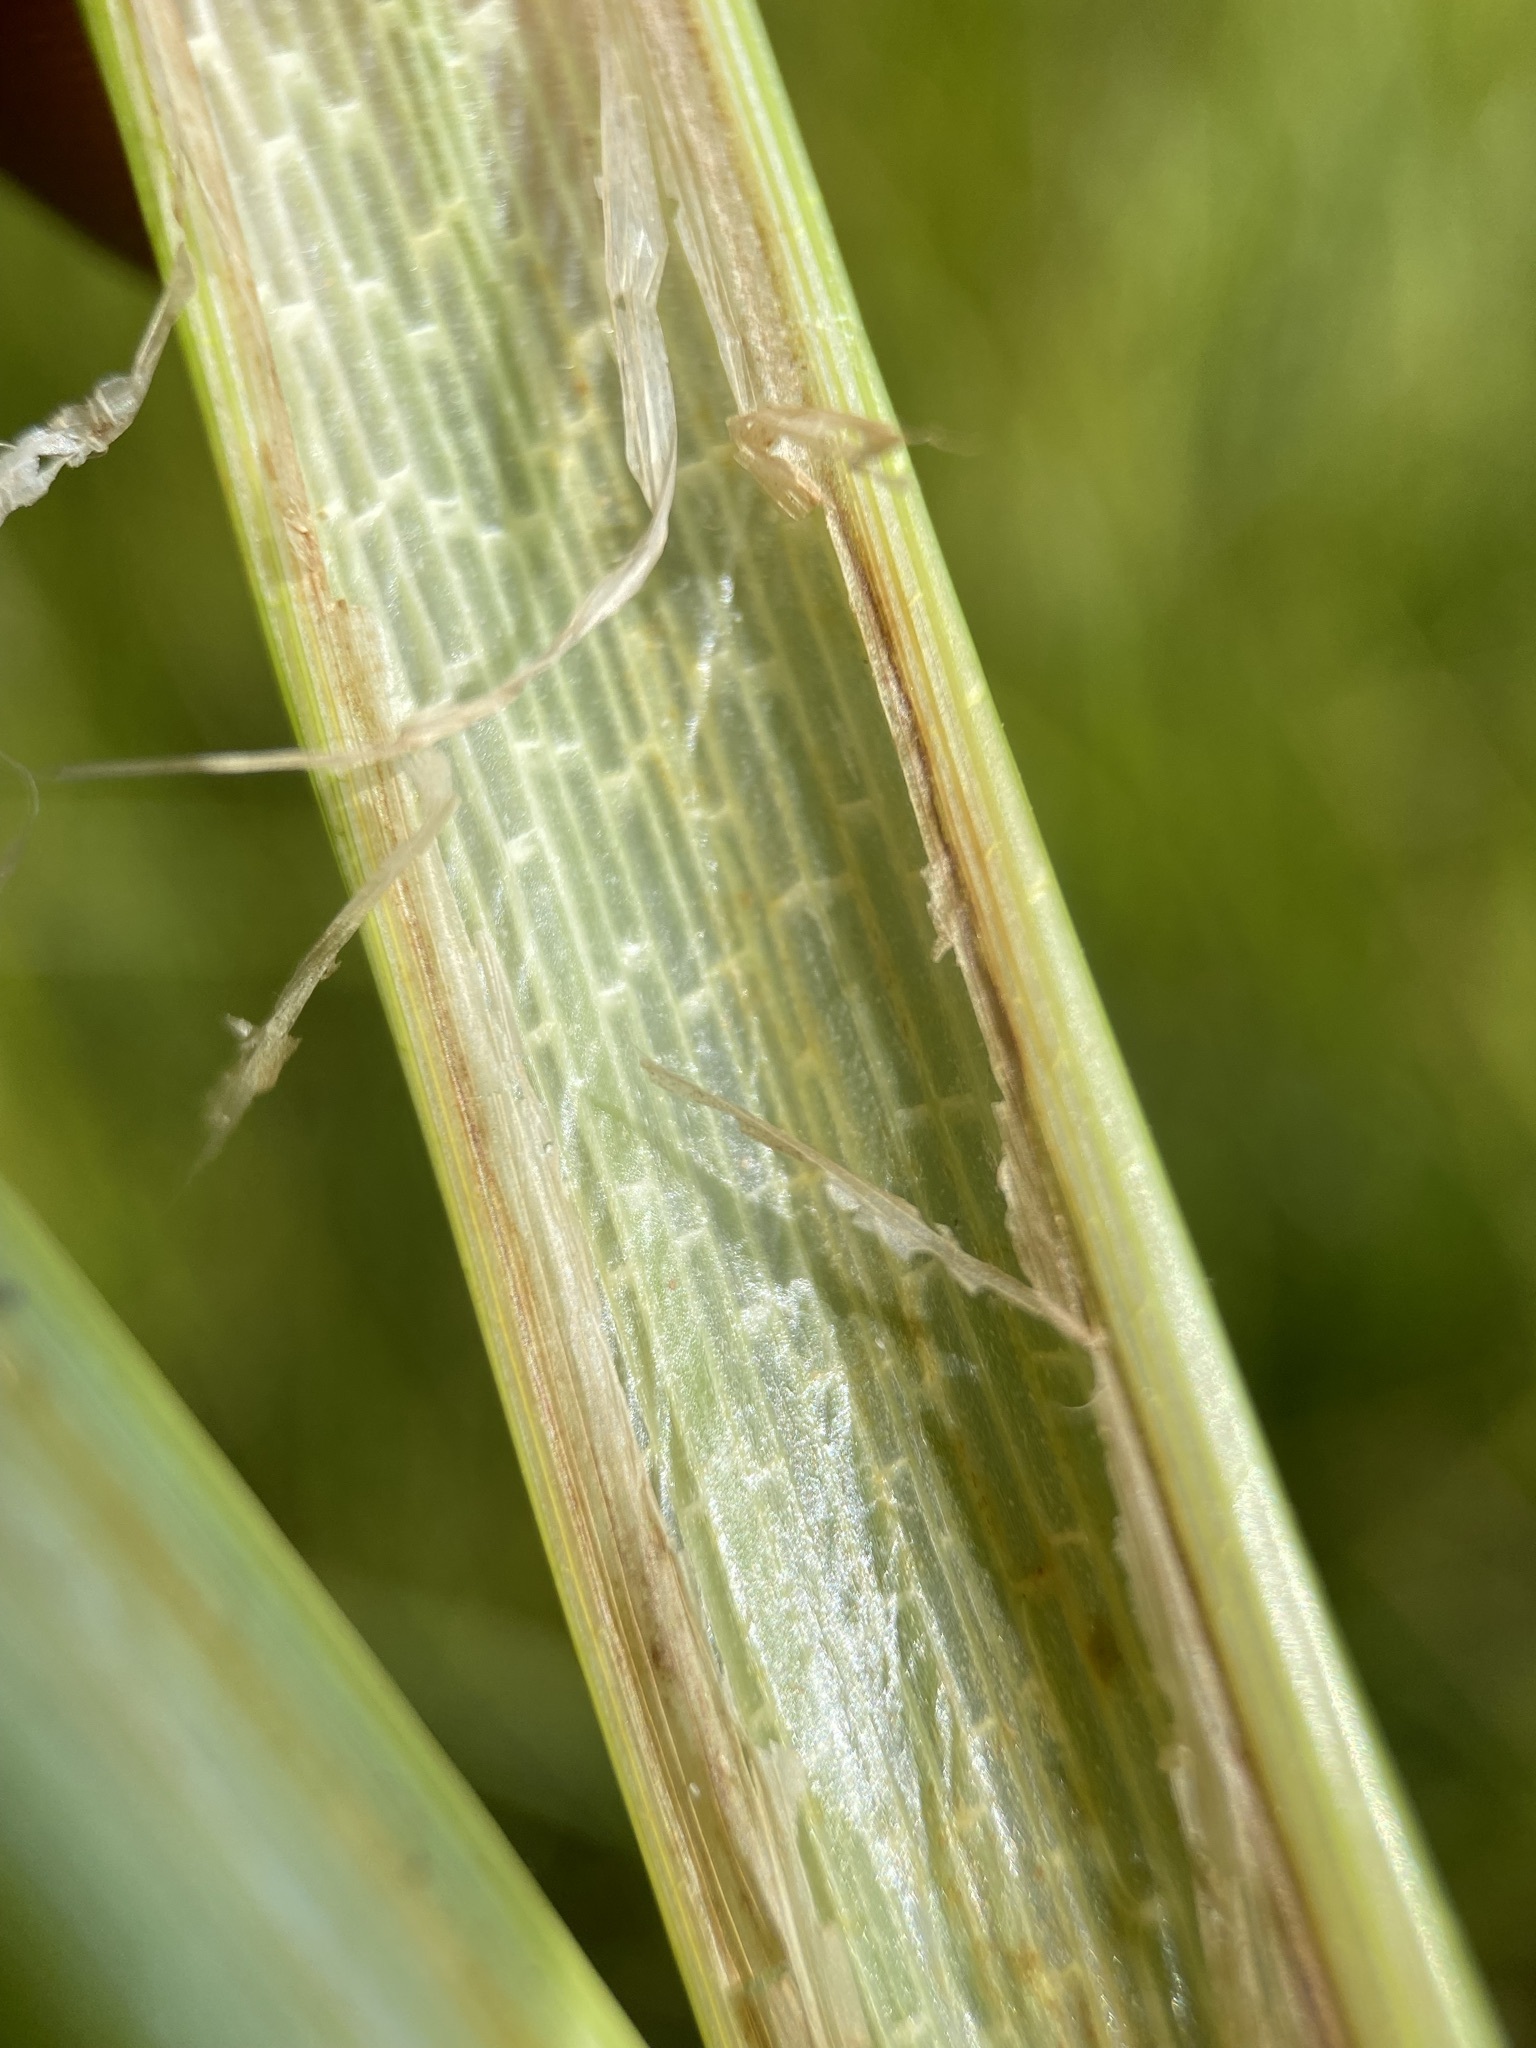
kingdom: Plantae
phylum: Tracheophyta
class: Liliopsida
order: Poales
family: Cyperaceae
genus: Carex
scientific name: Carex utriculata
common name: Beaked sedge
